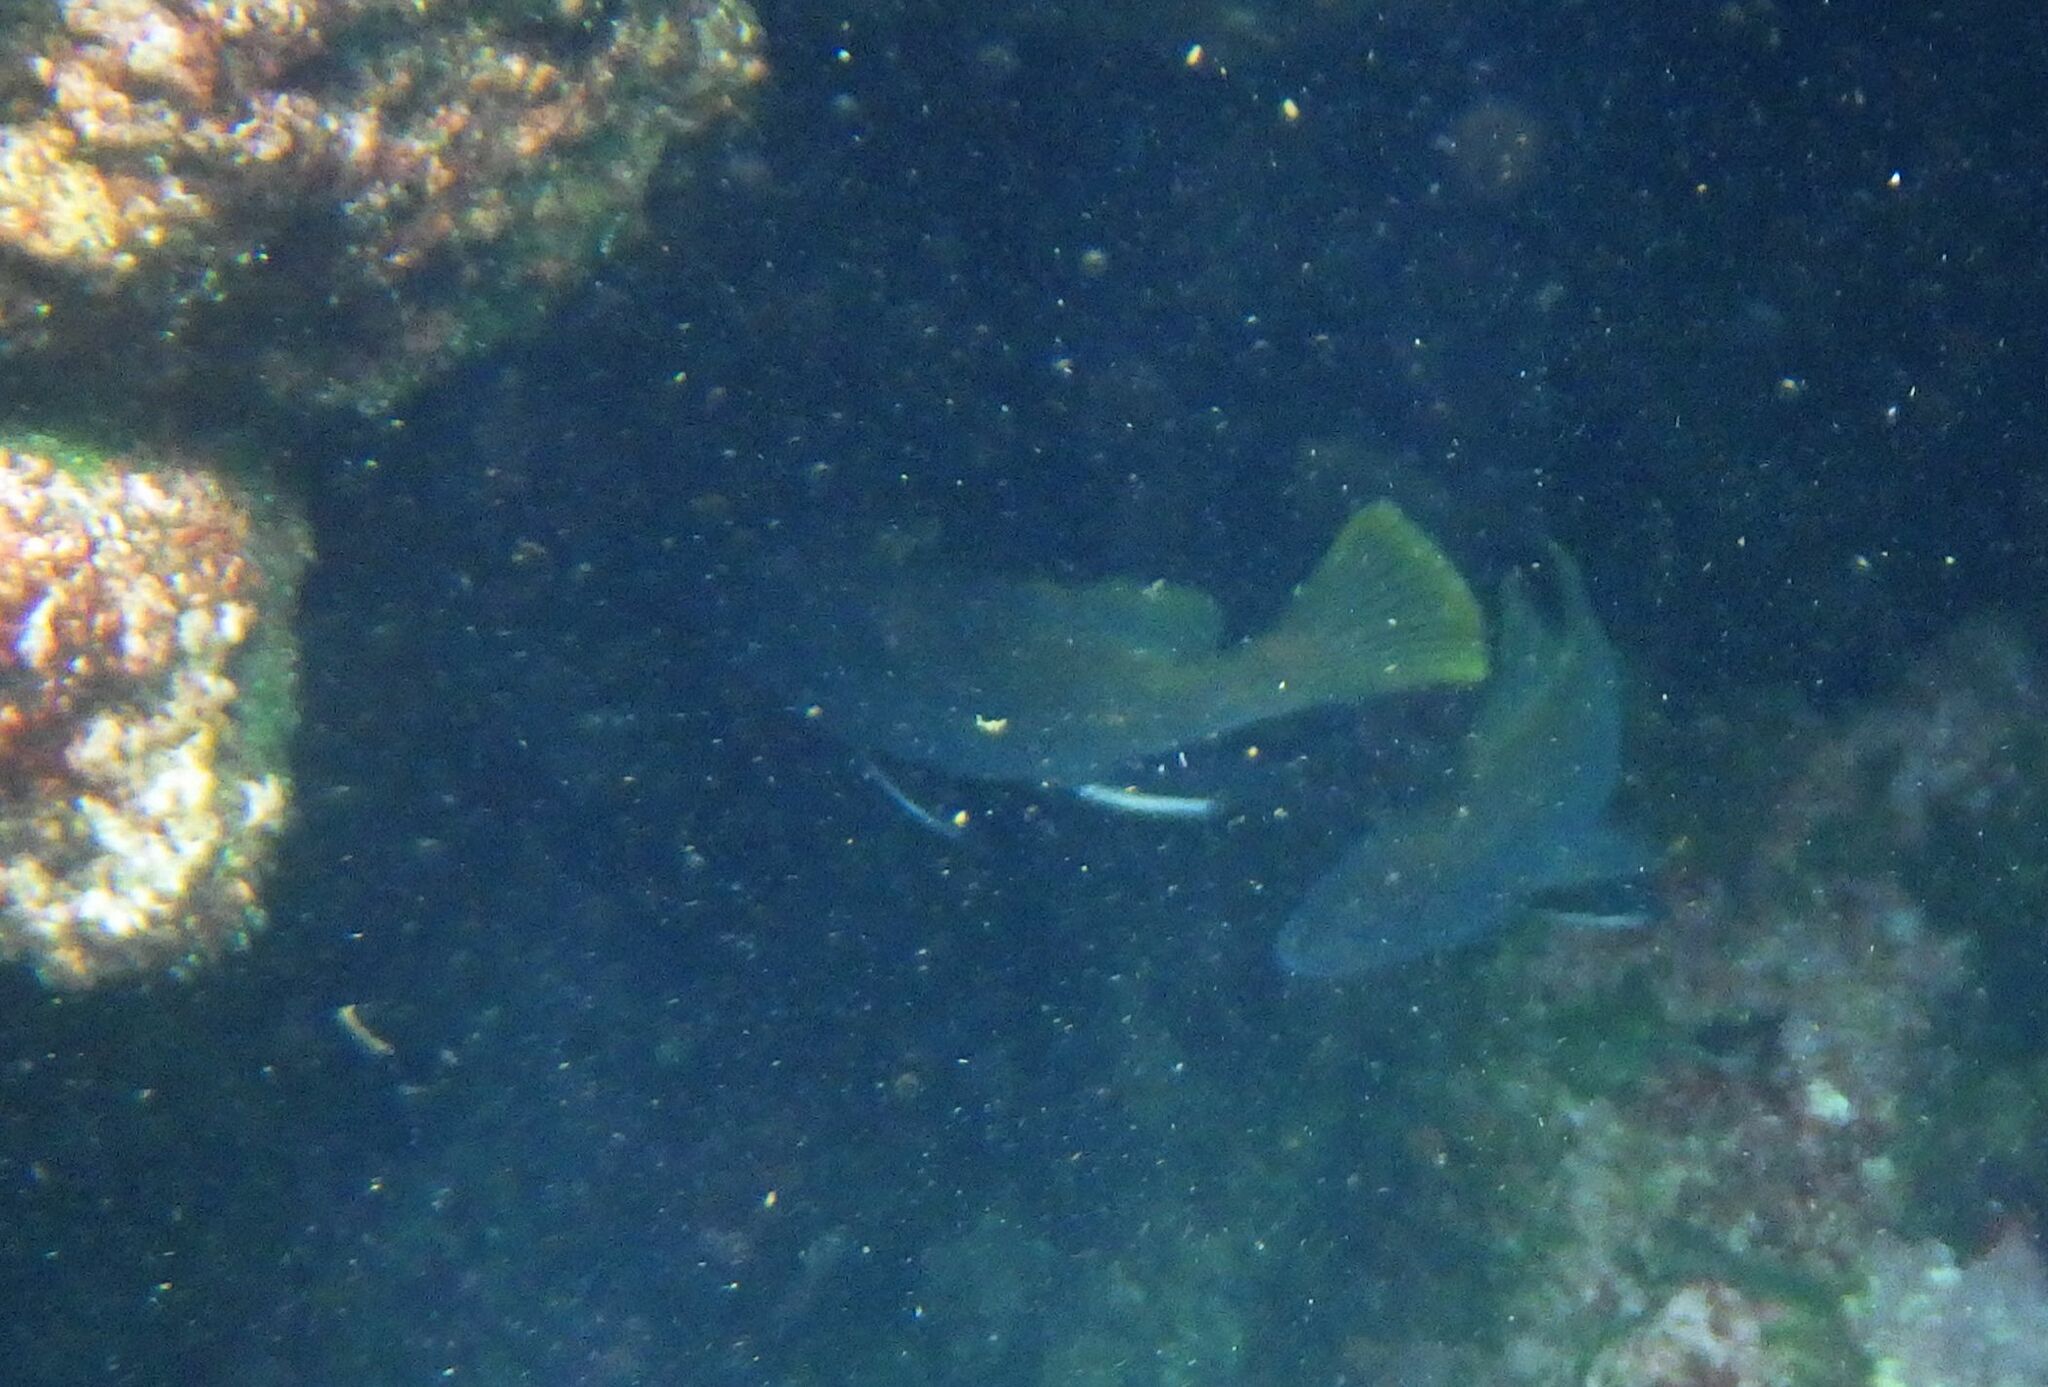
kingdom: Animalia
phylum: Chordata
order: Perciformes
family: Sciaenidae
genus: Sciaena
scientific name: Sciaena umbra
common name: Brown meagre
